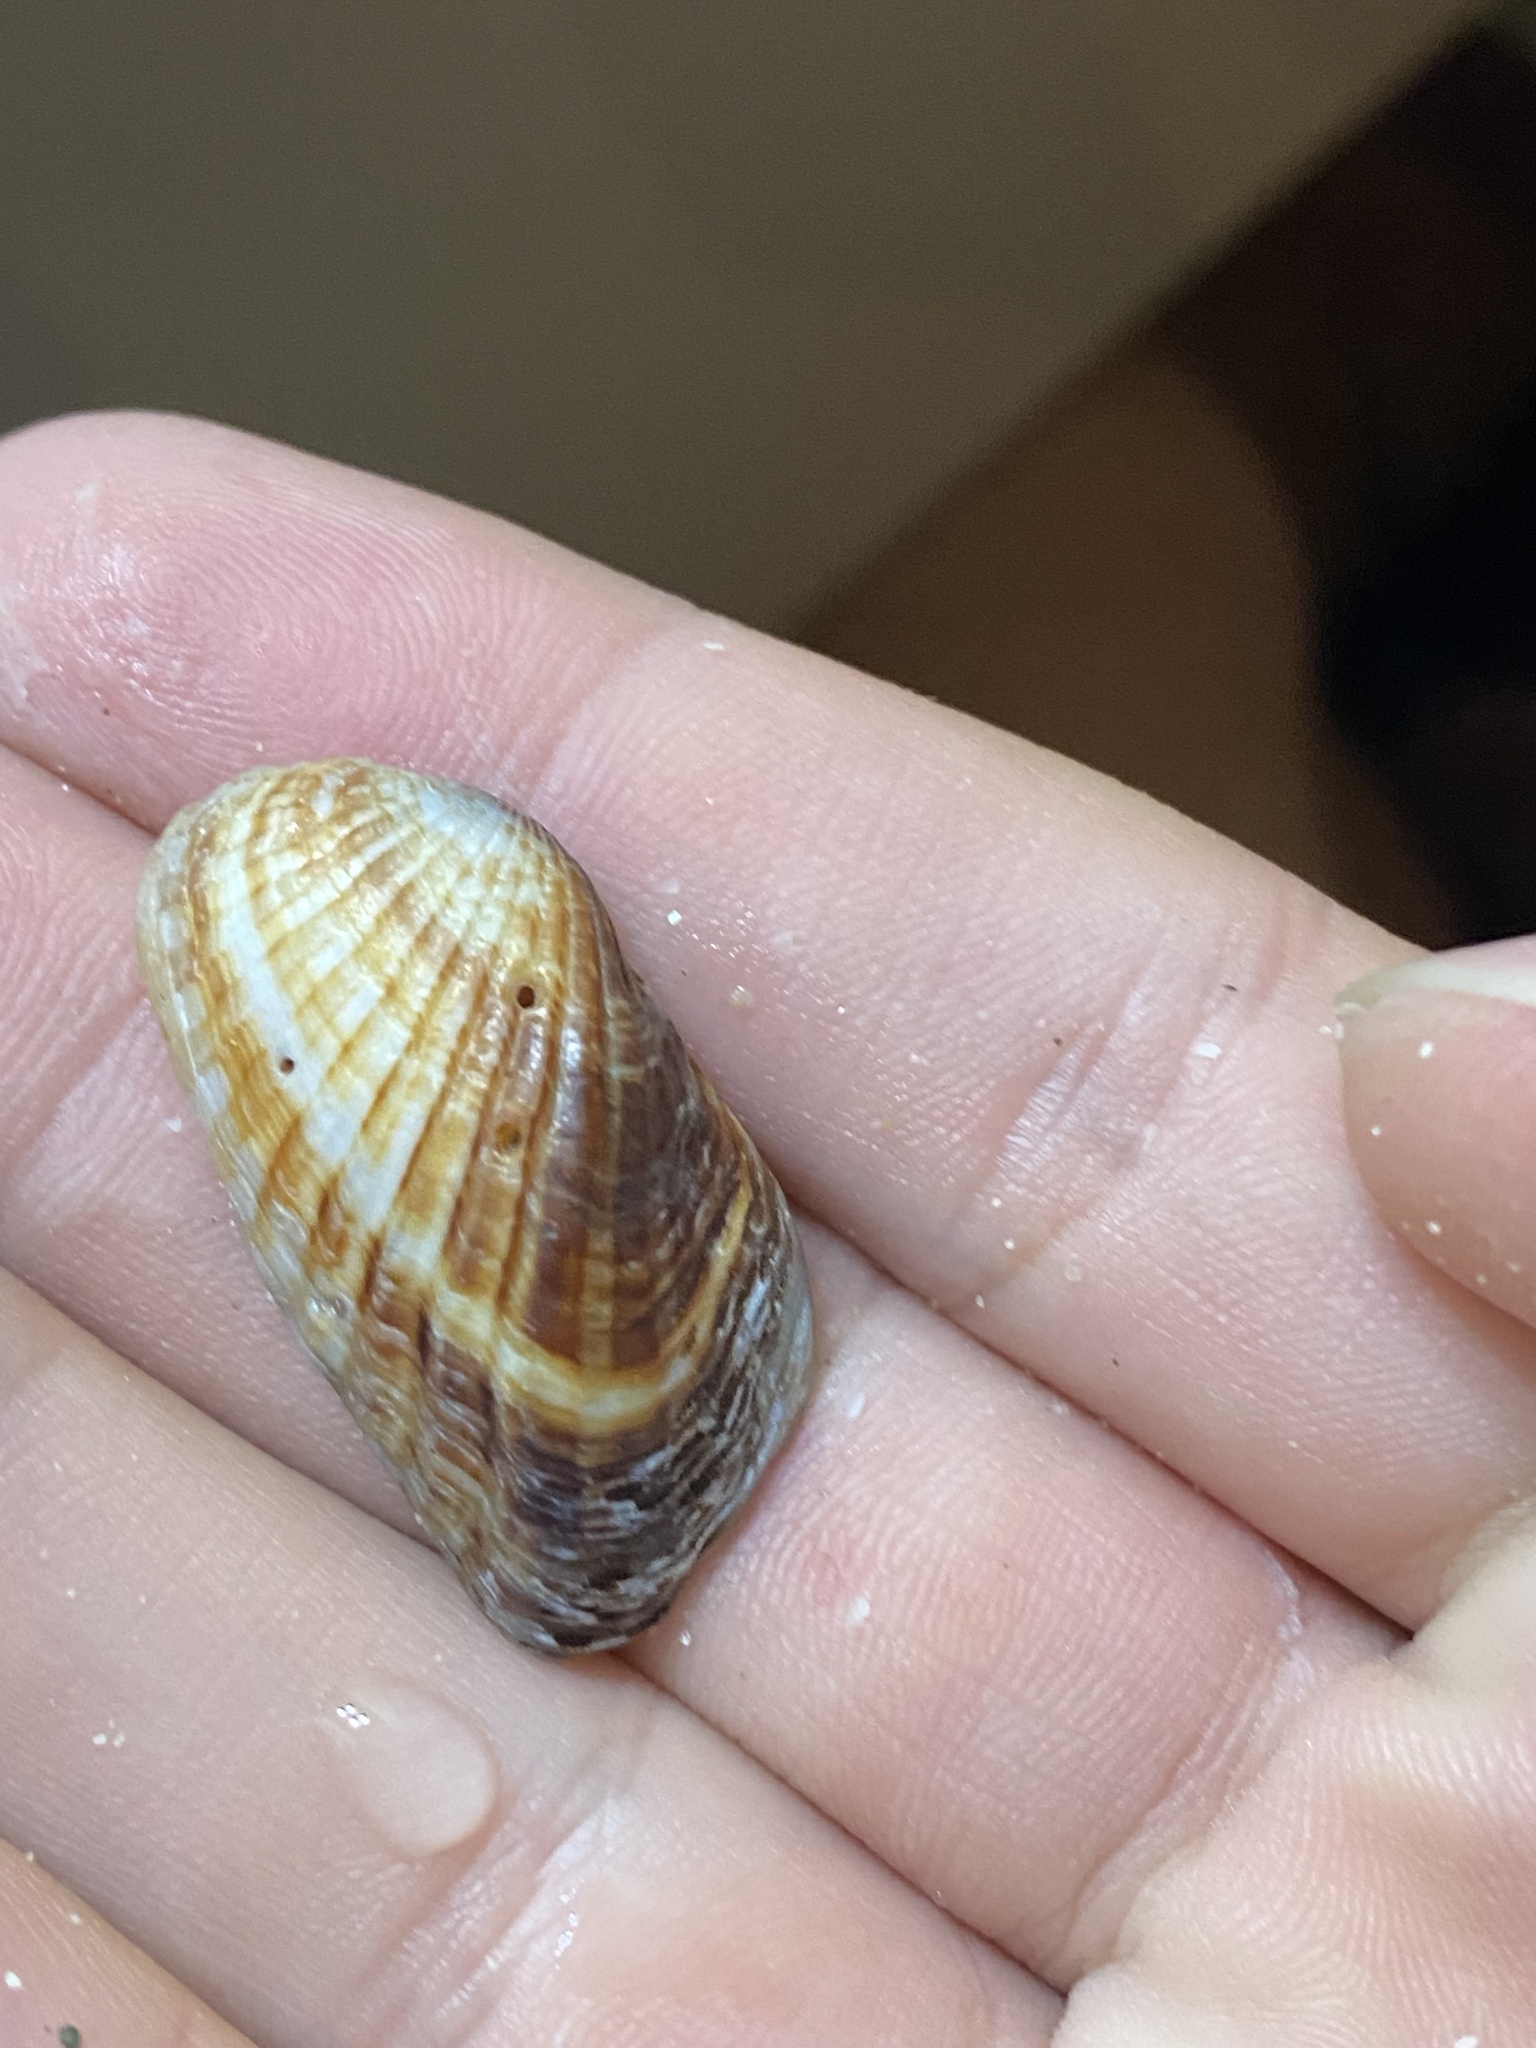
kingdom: Animalia
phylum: Mollusca
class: Bivalvia
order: Carditida
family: Carditidae
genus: Carditamera
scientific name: Carditamera bajaensis
